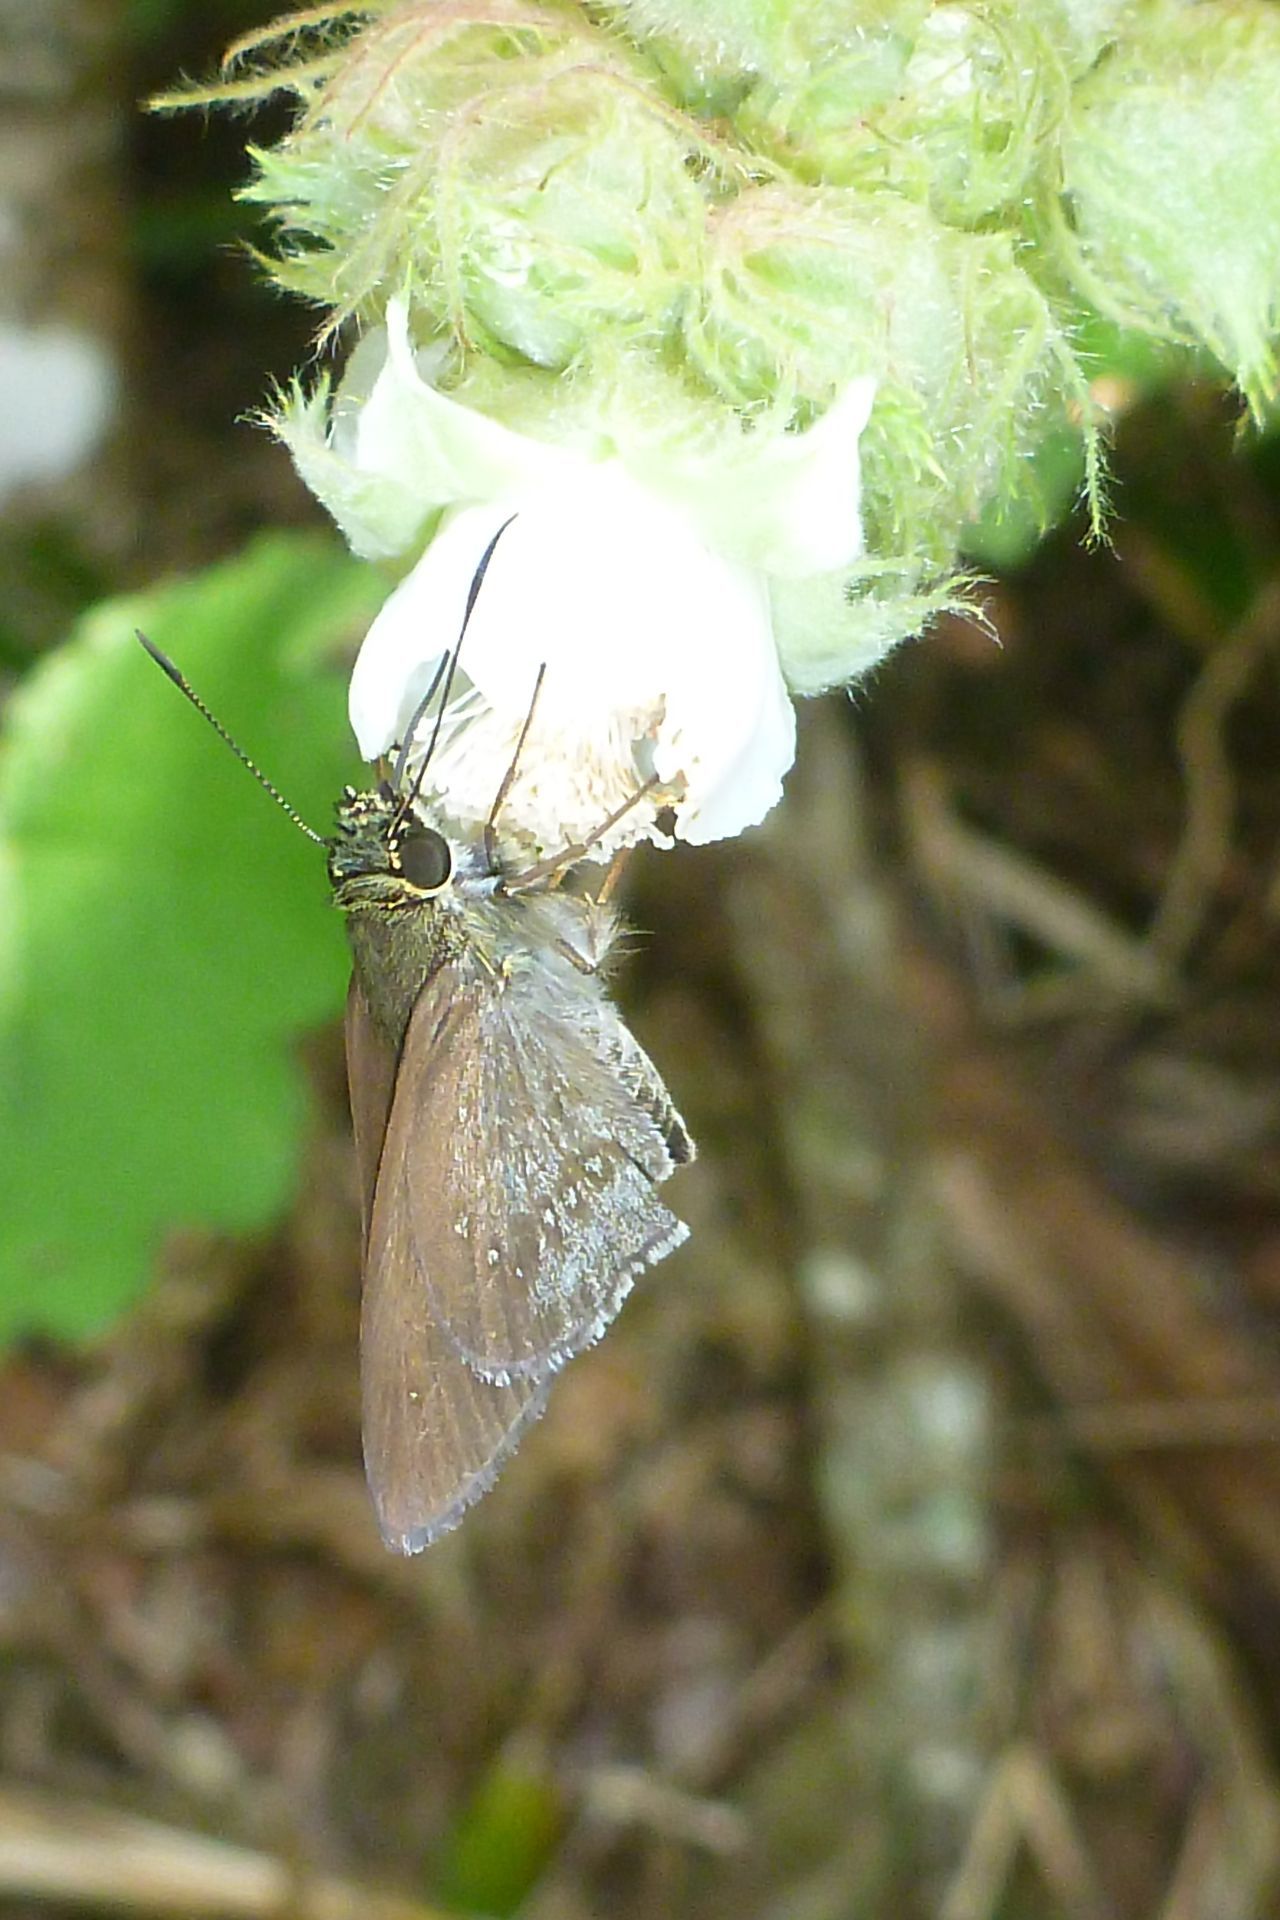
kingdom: Animalia
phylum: Arthropoda
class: Insecta
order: Lepidoptera
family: Hesperiidae
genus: Toxidia
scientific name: Toxidia
